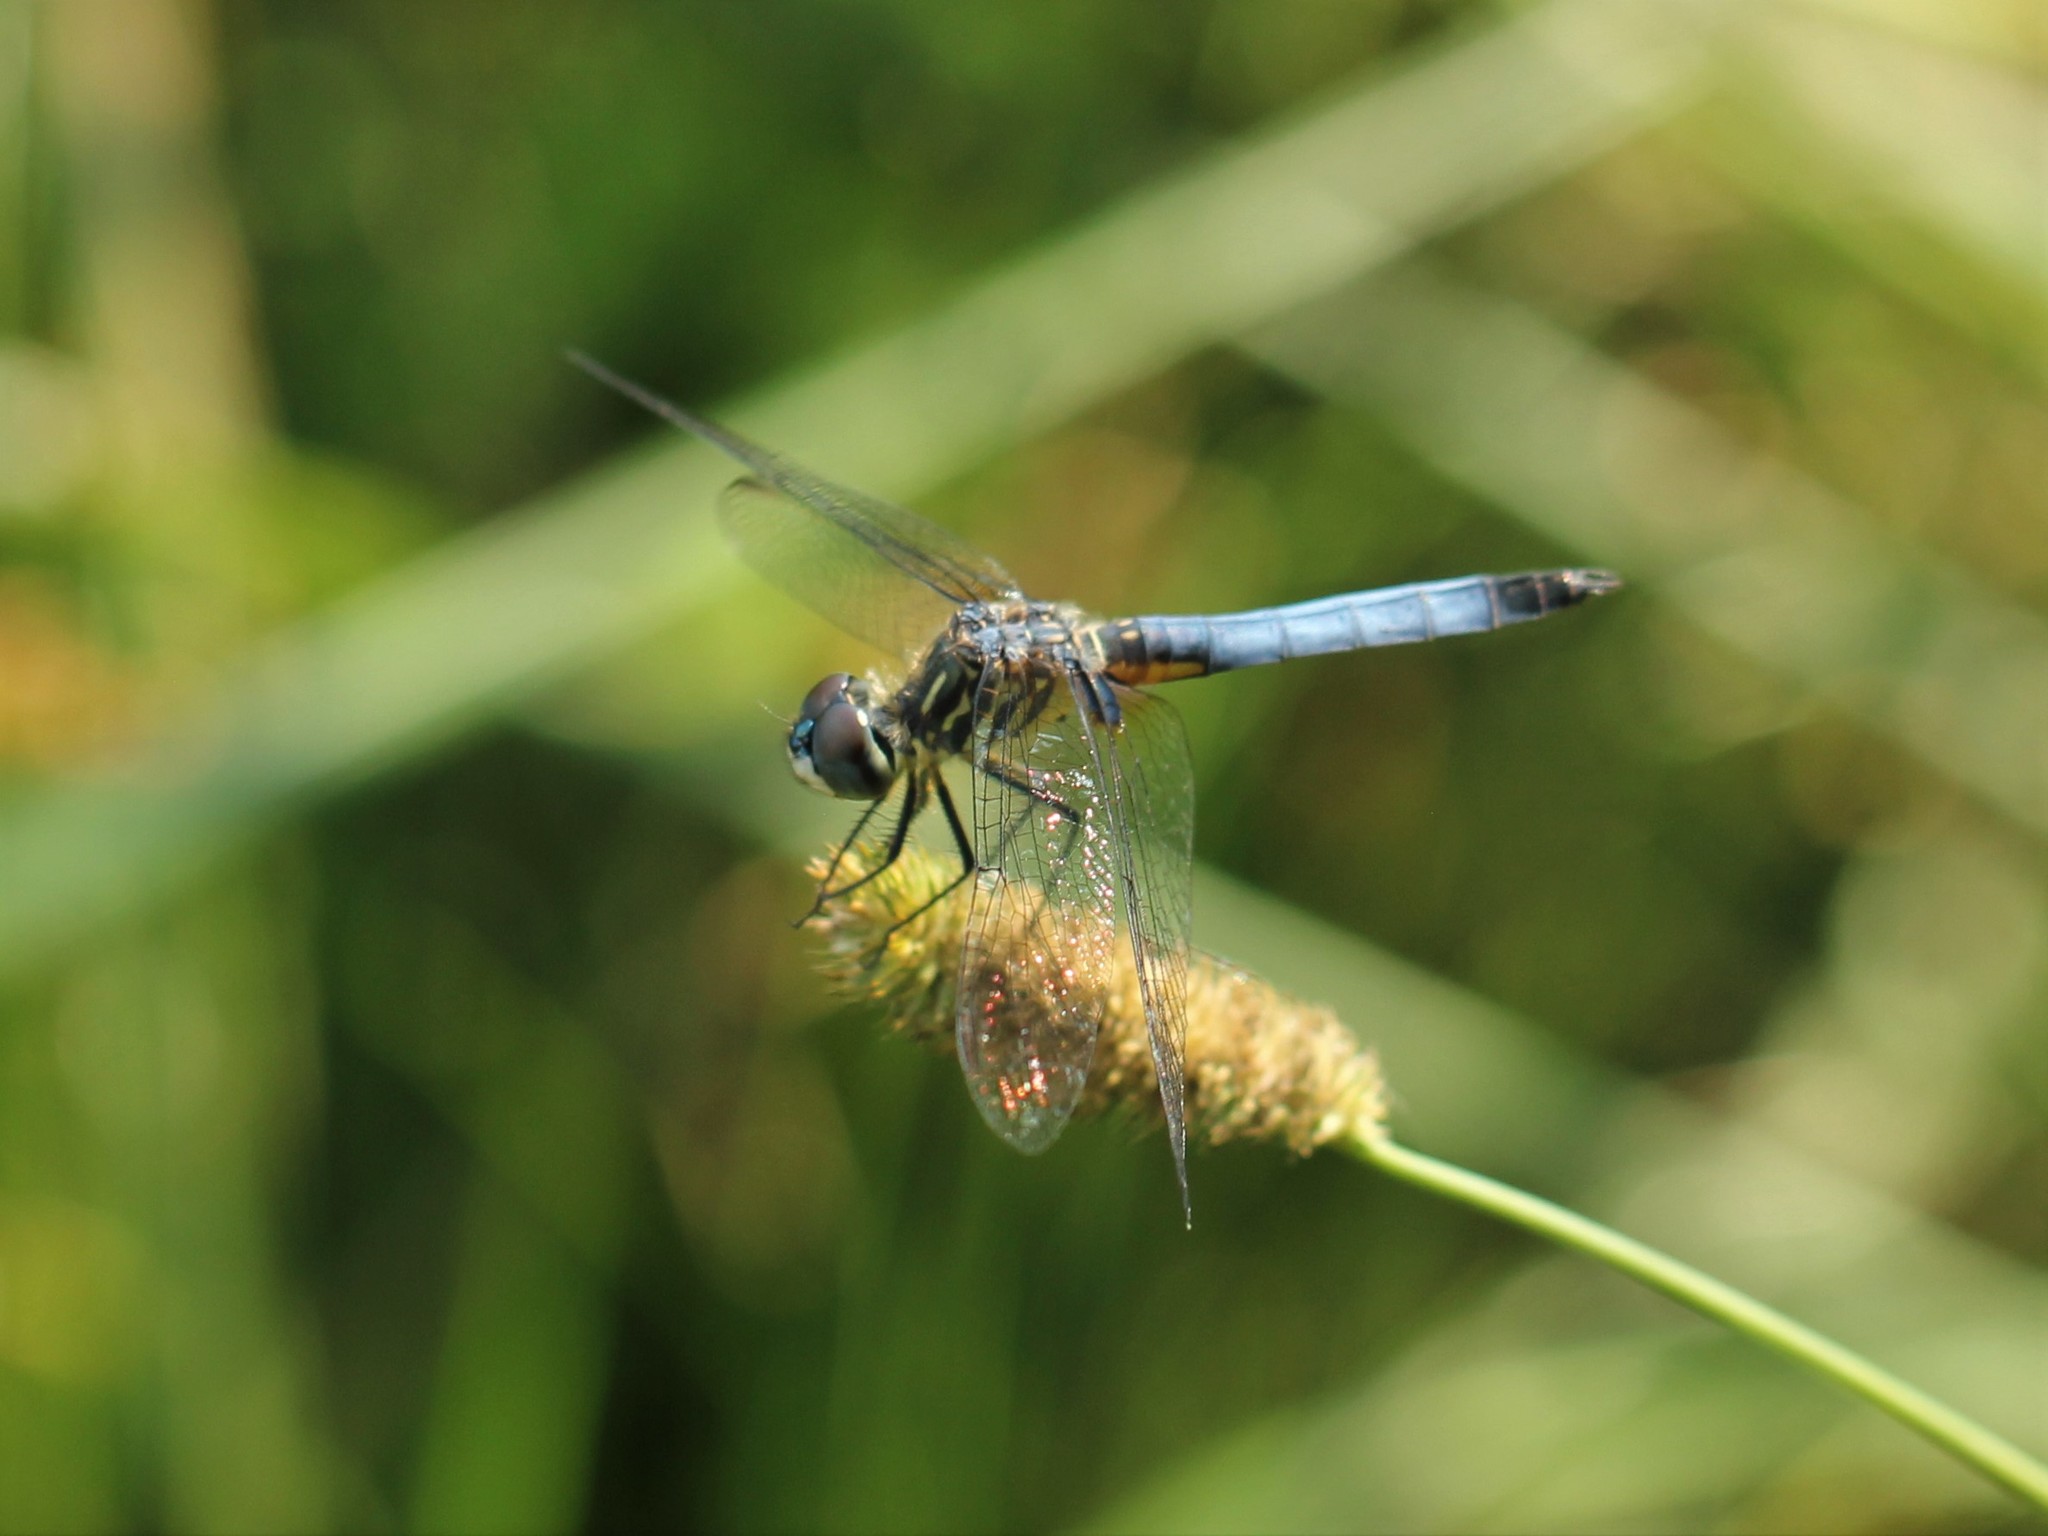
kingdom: Animalia
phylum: Arthropoda
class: Insecta
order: Odonata
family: Libellulidae
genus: Pachydiplax
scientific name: Pachydiplax longipennis
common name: Blue dasher
